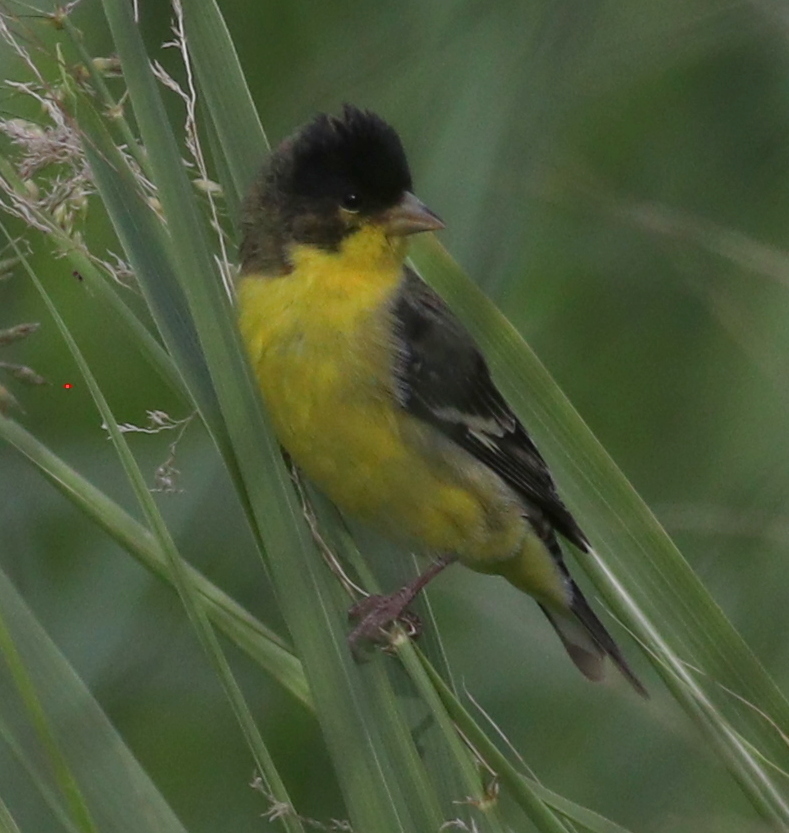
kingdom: Animalia
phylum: Chordata
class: Aves
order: Passeriformes
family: Fringillidae
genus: Spinus
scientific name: Spinus psaltria
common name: Lesser goldfinch
